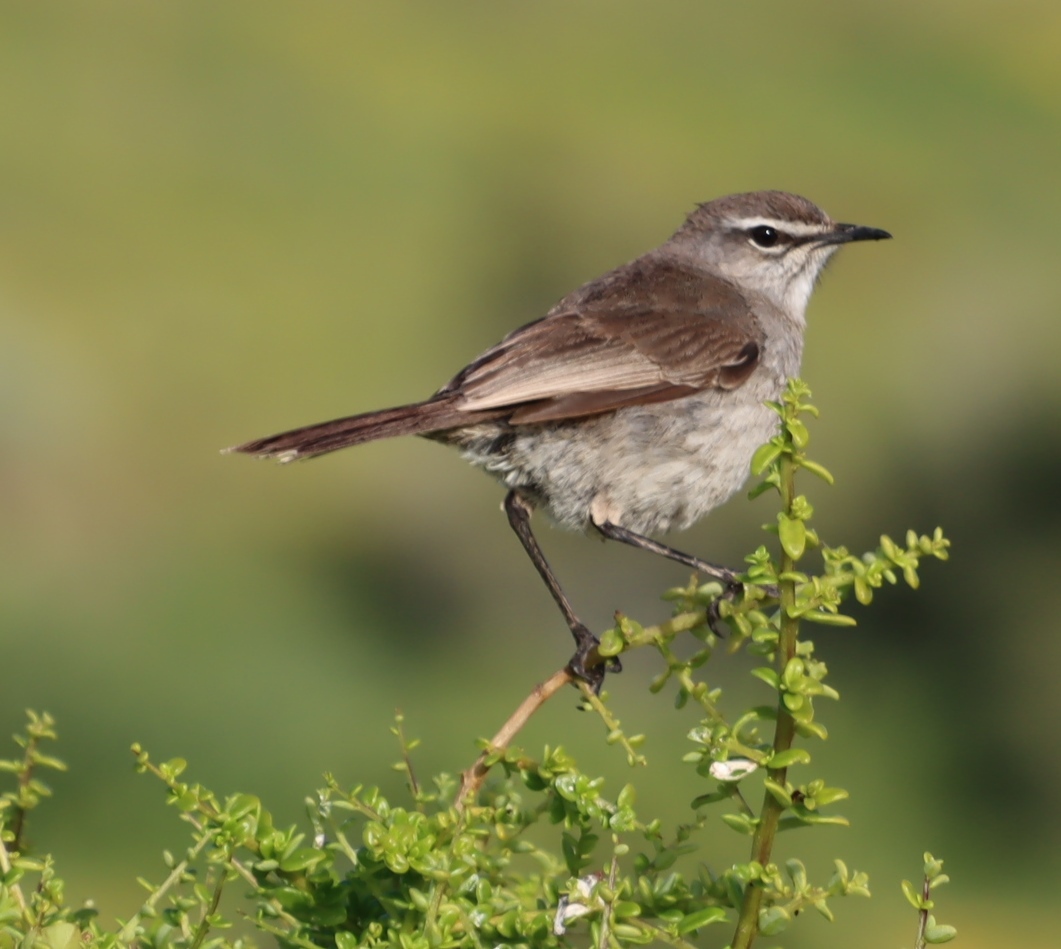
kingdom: Animalia
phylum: Chordata
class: Aves
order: Passeriformes
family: Muscicapidae
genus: Erythropygia
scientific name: Erythropygia coryphoeus
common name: Karoo scrub robin
